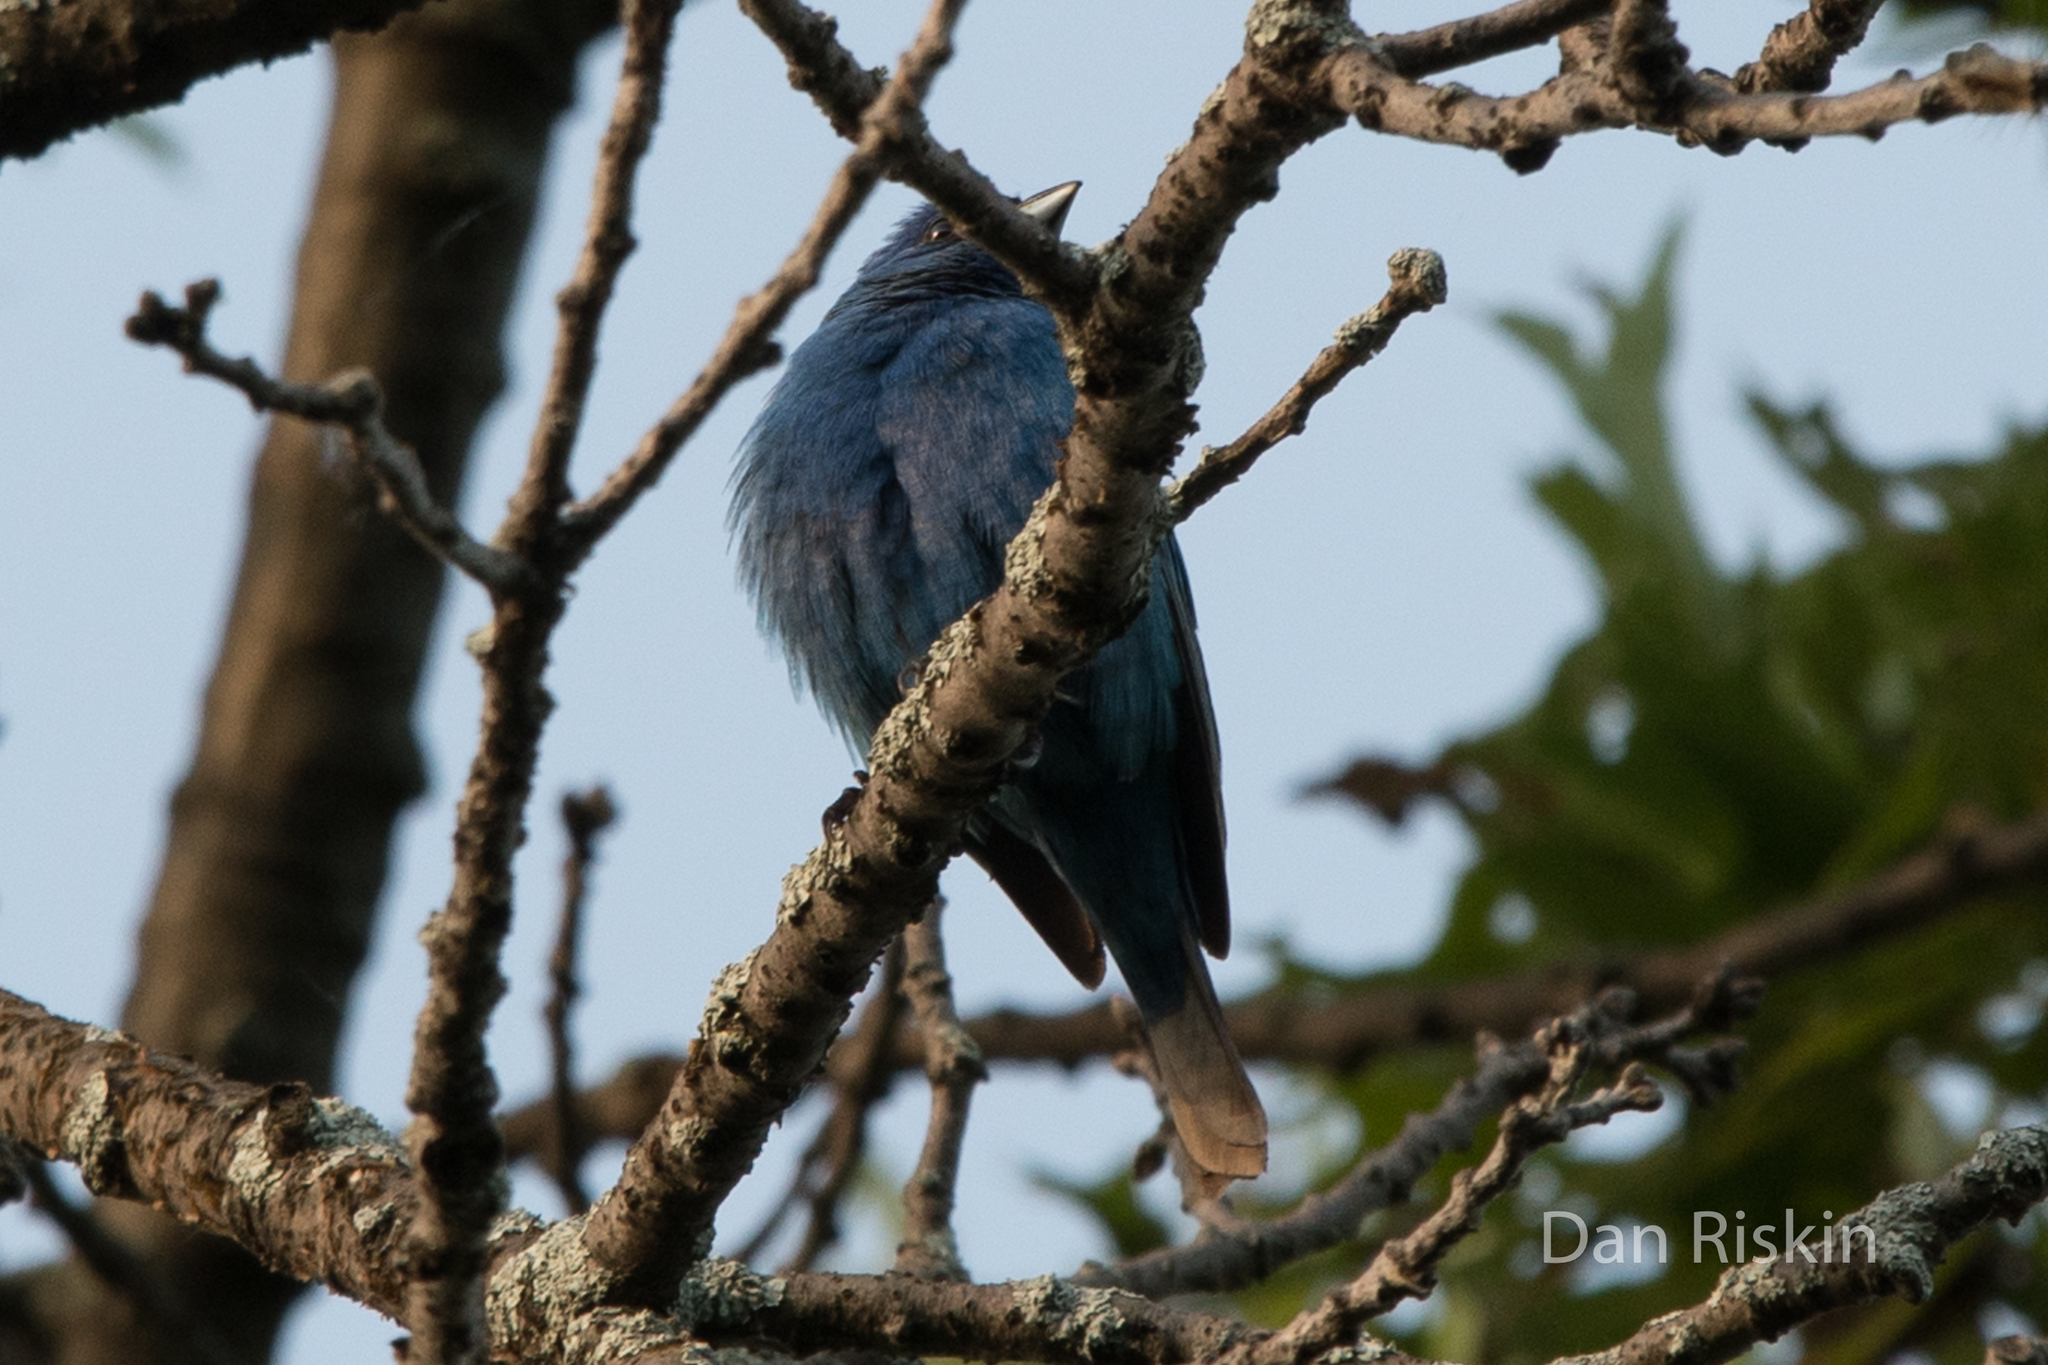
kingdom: Animalia
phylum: Chordata
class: Aves
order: Passeriformes
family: Cardinalidae
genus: Passerina
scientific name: Passerina cyanea
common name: Indigo bunting
